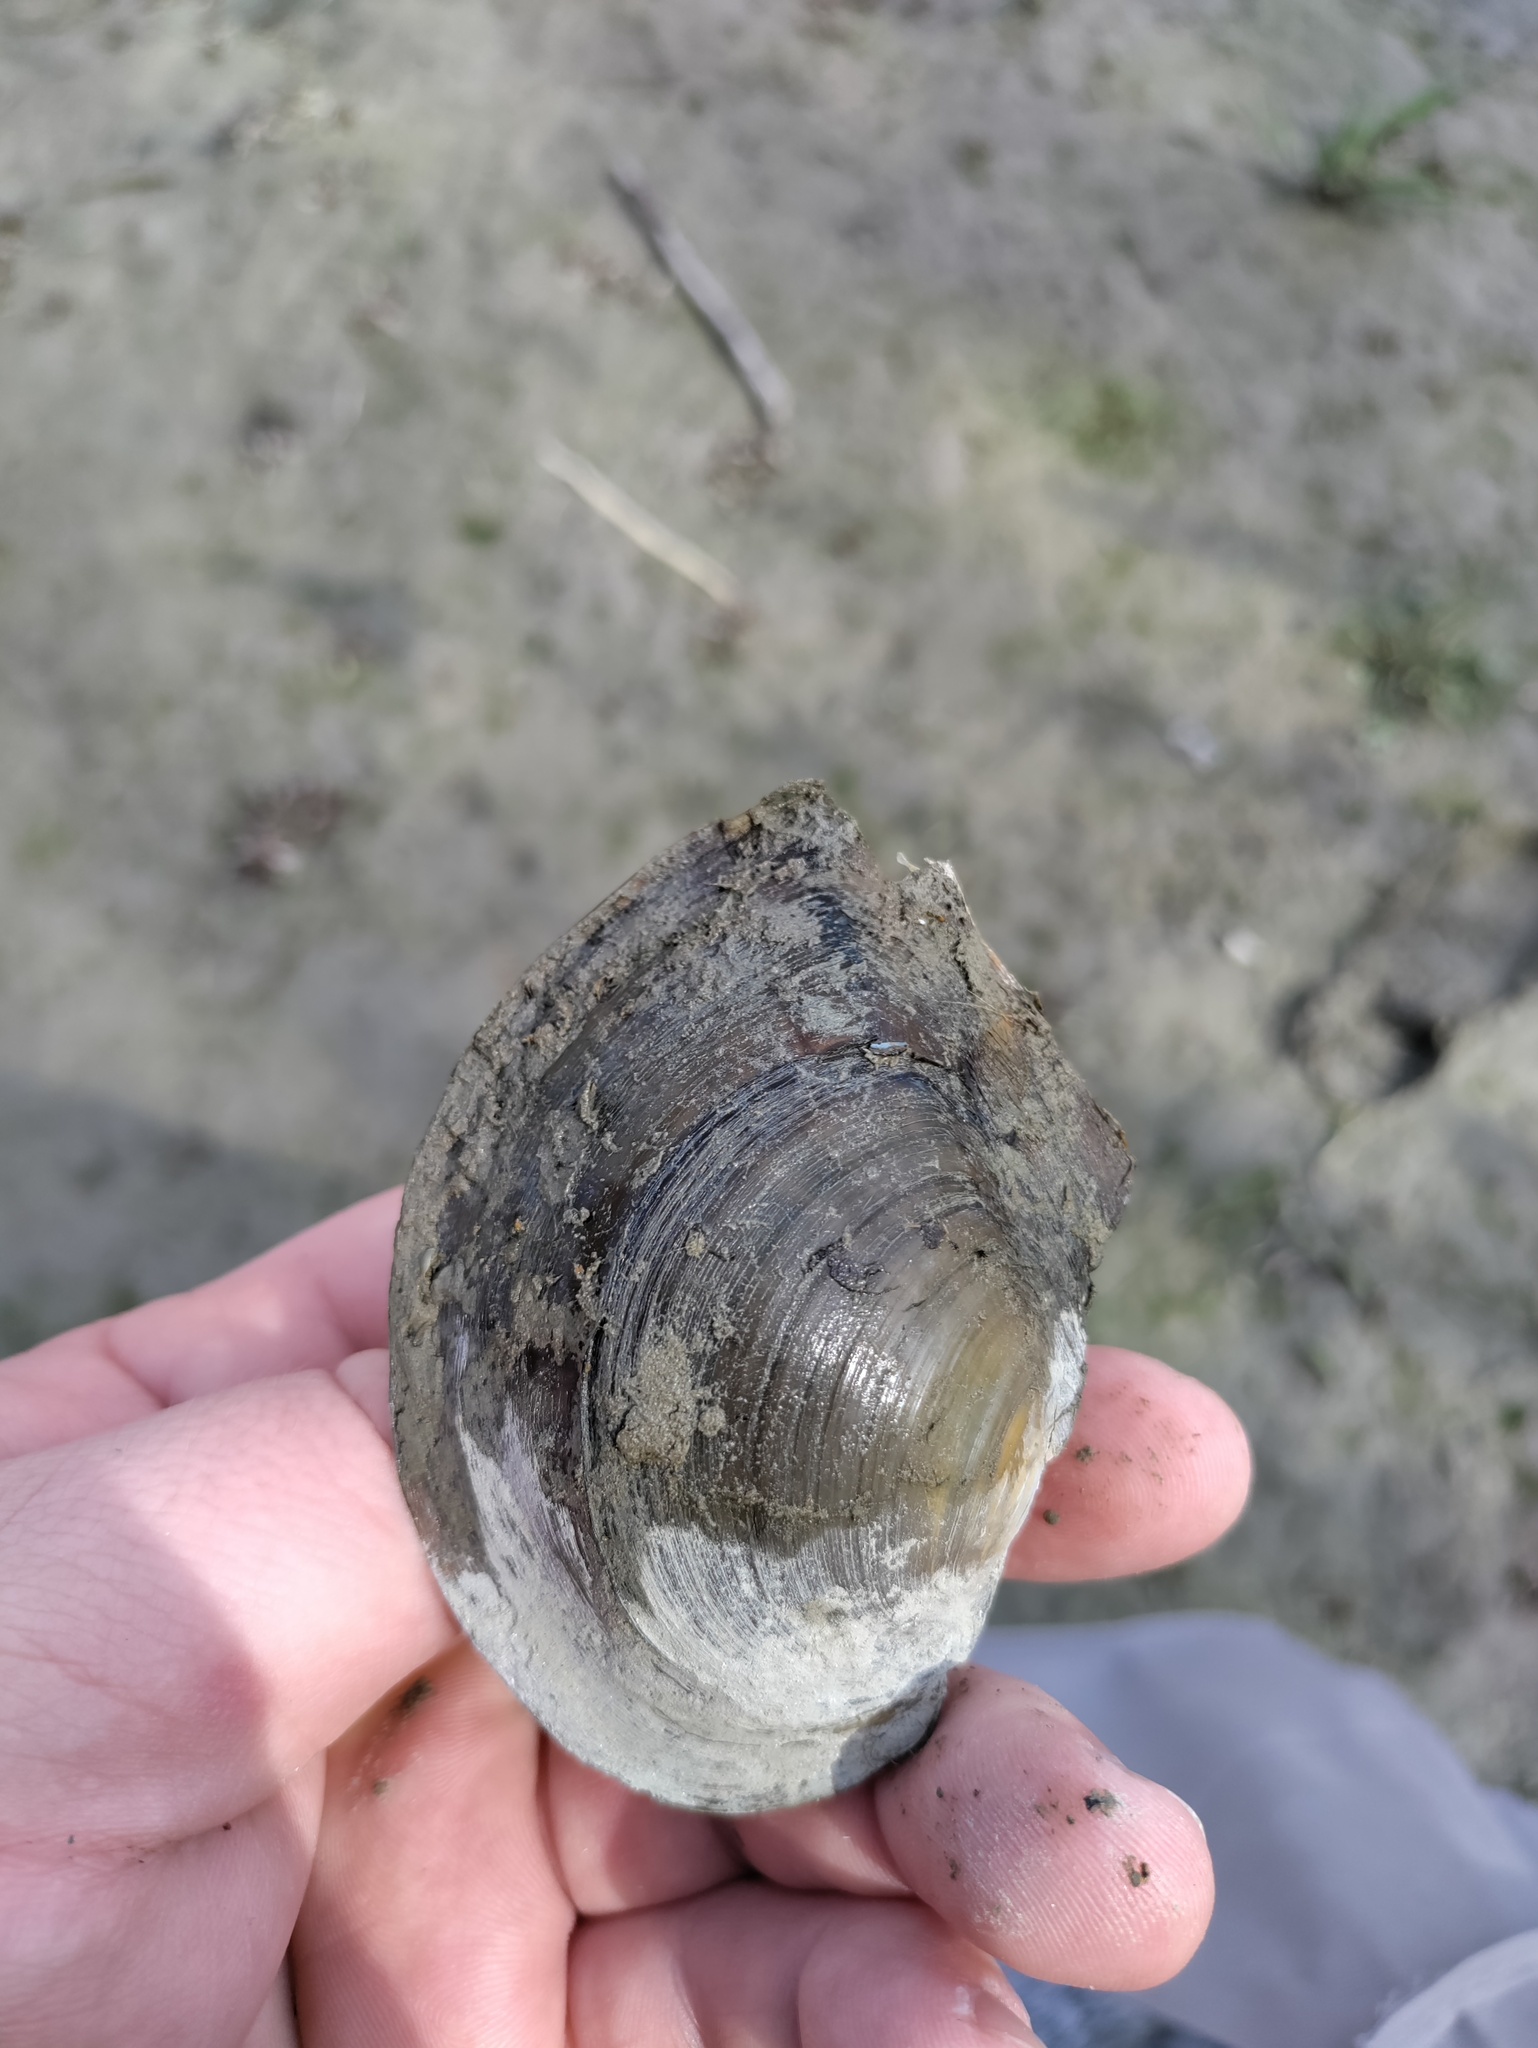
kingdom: Animalia
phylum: Mollusca
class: Bivalvia
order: Unionida
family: Unionidae
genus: Sinanodonta
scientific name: Sinanodonta woodiana
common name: Chinese pond mussel
